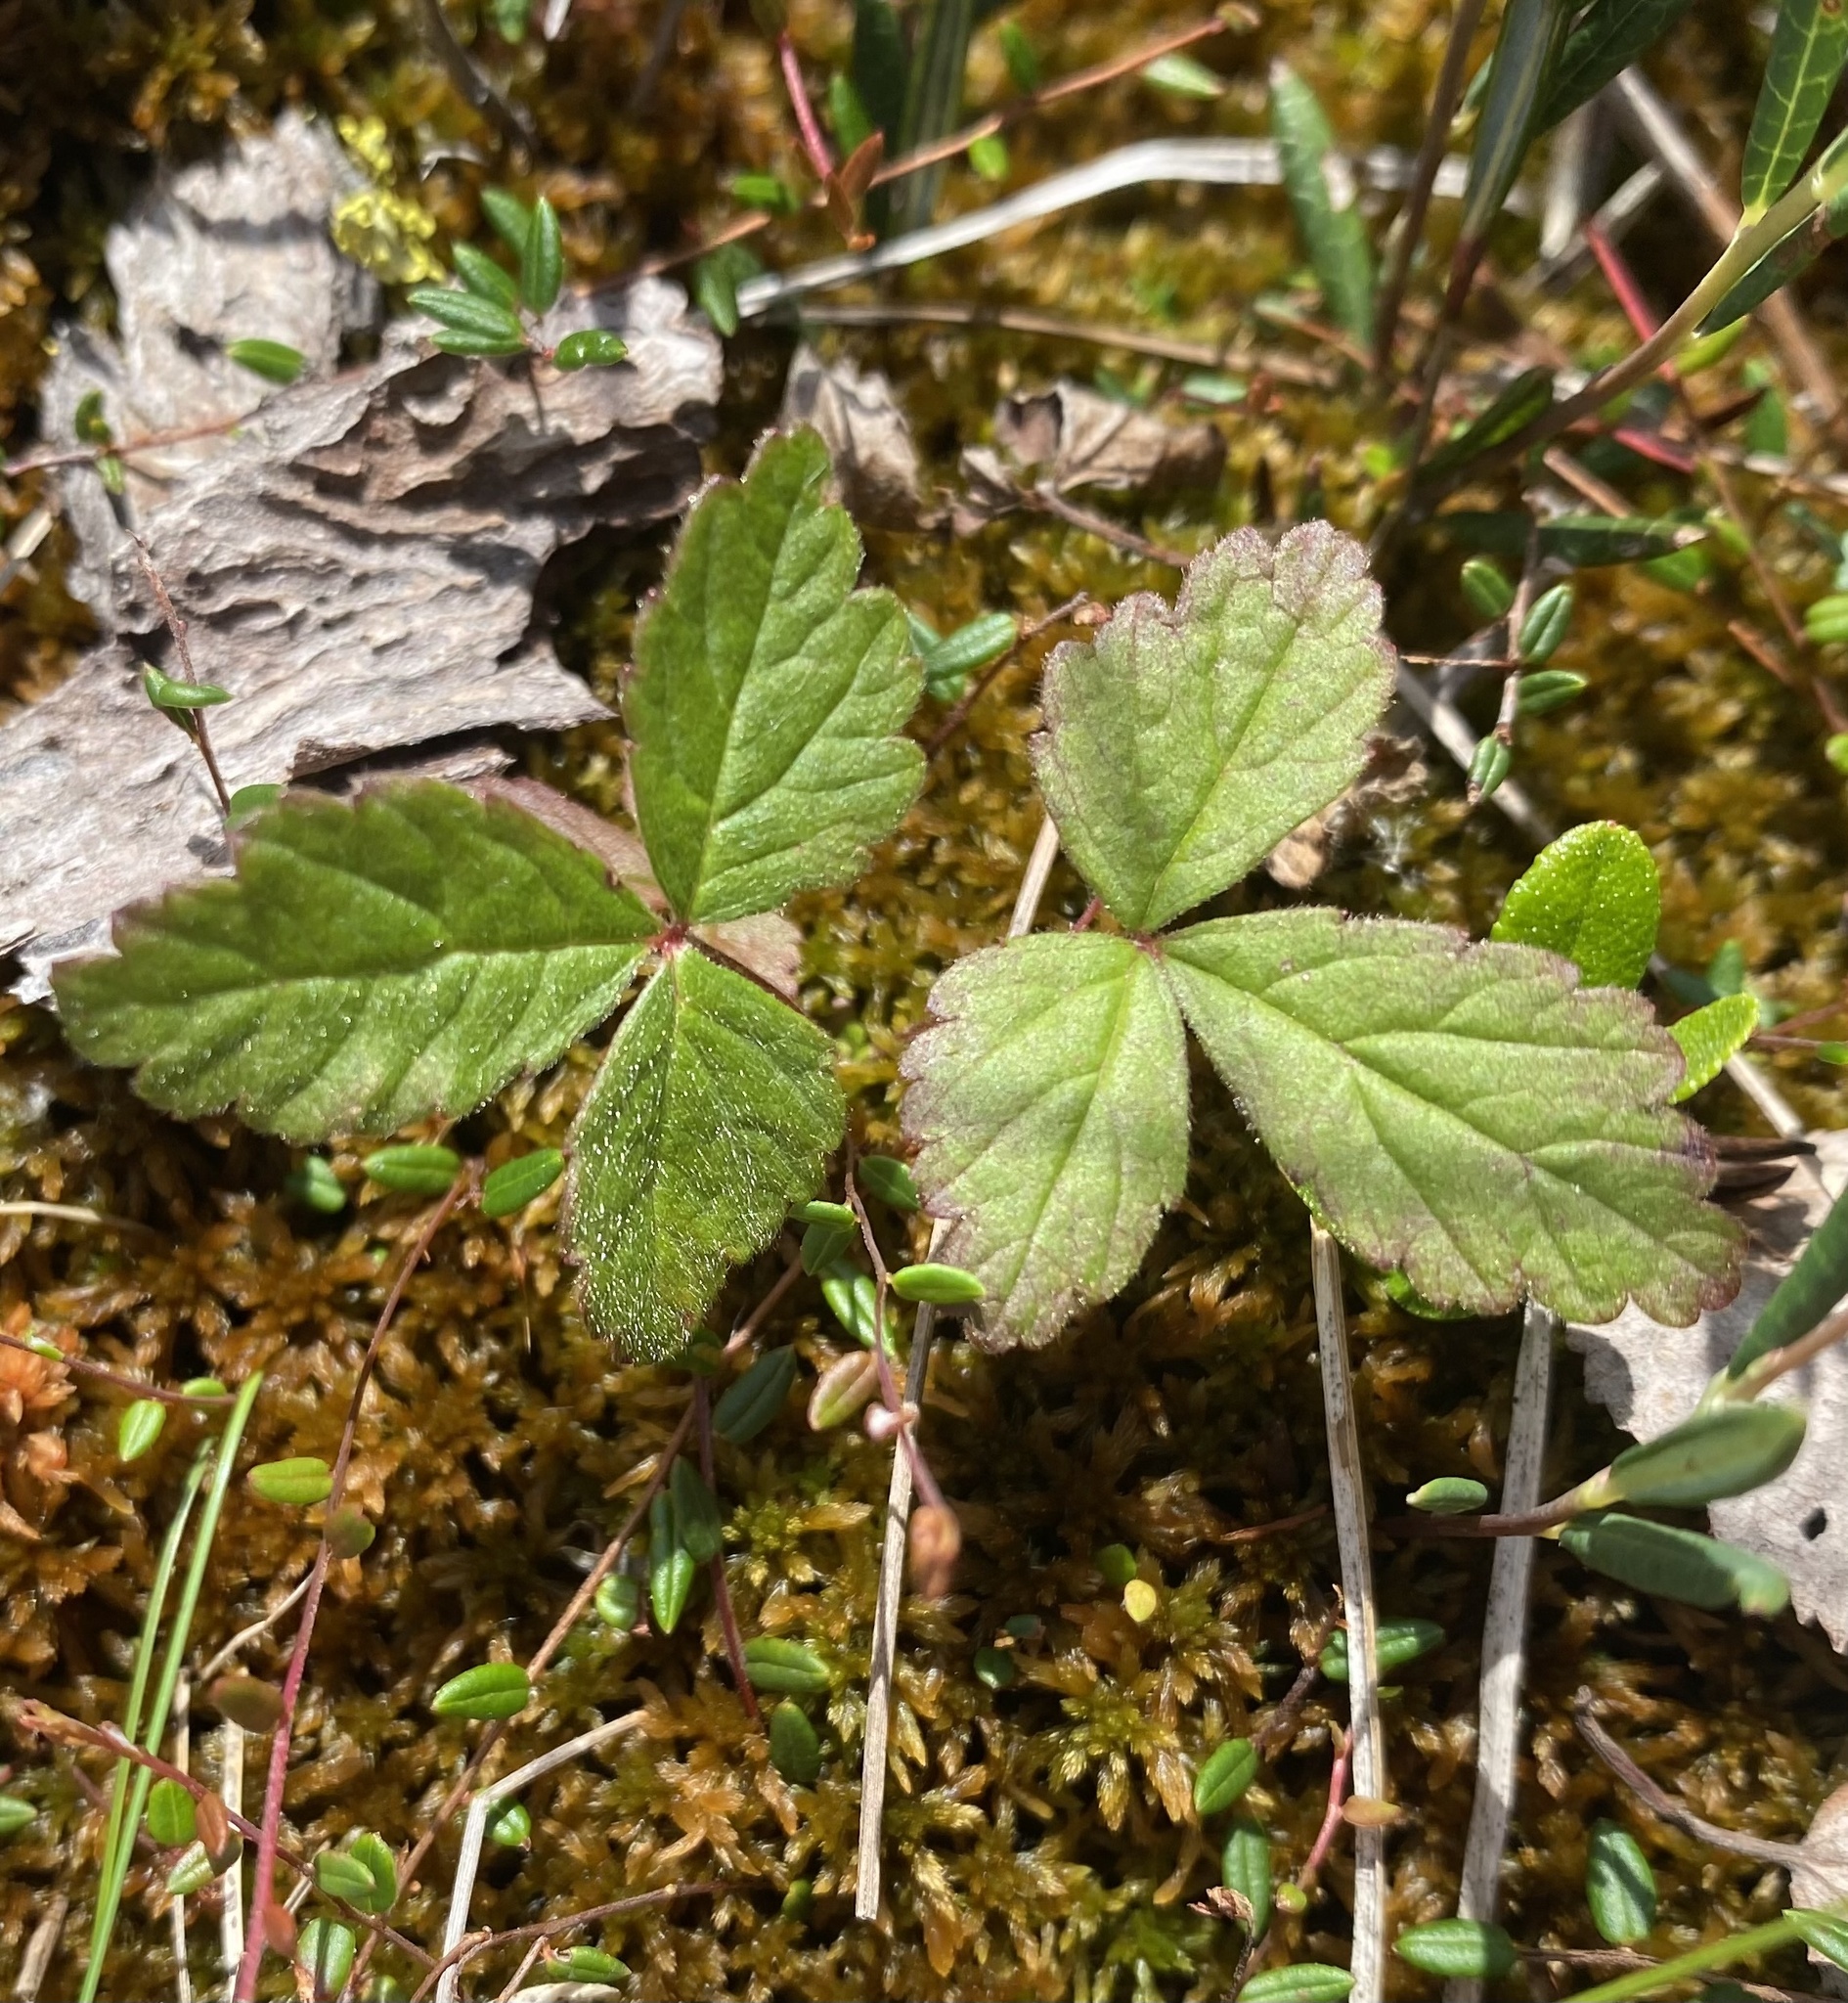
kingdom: Plantae
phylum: Tracheophyta
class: Magnoliopsida
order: Rosales
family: Rosaceae
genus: Rubus
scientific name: Rubus arcticus
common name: Arctic bramble
